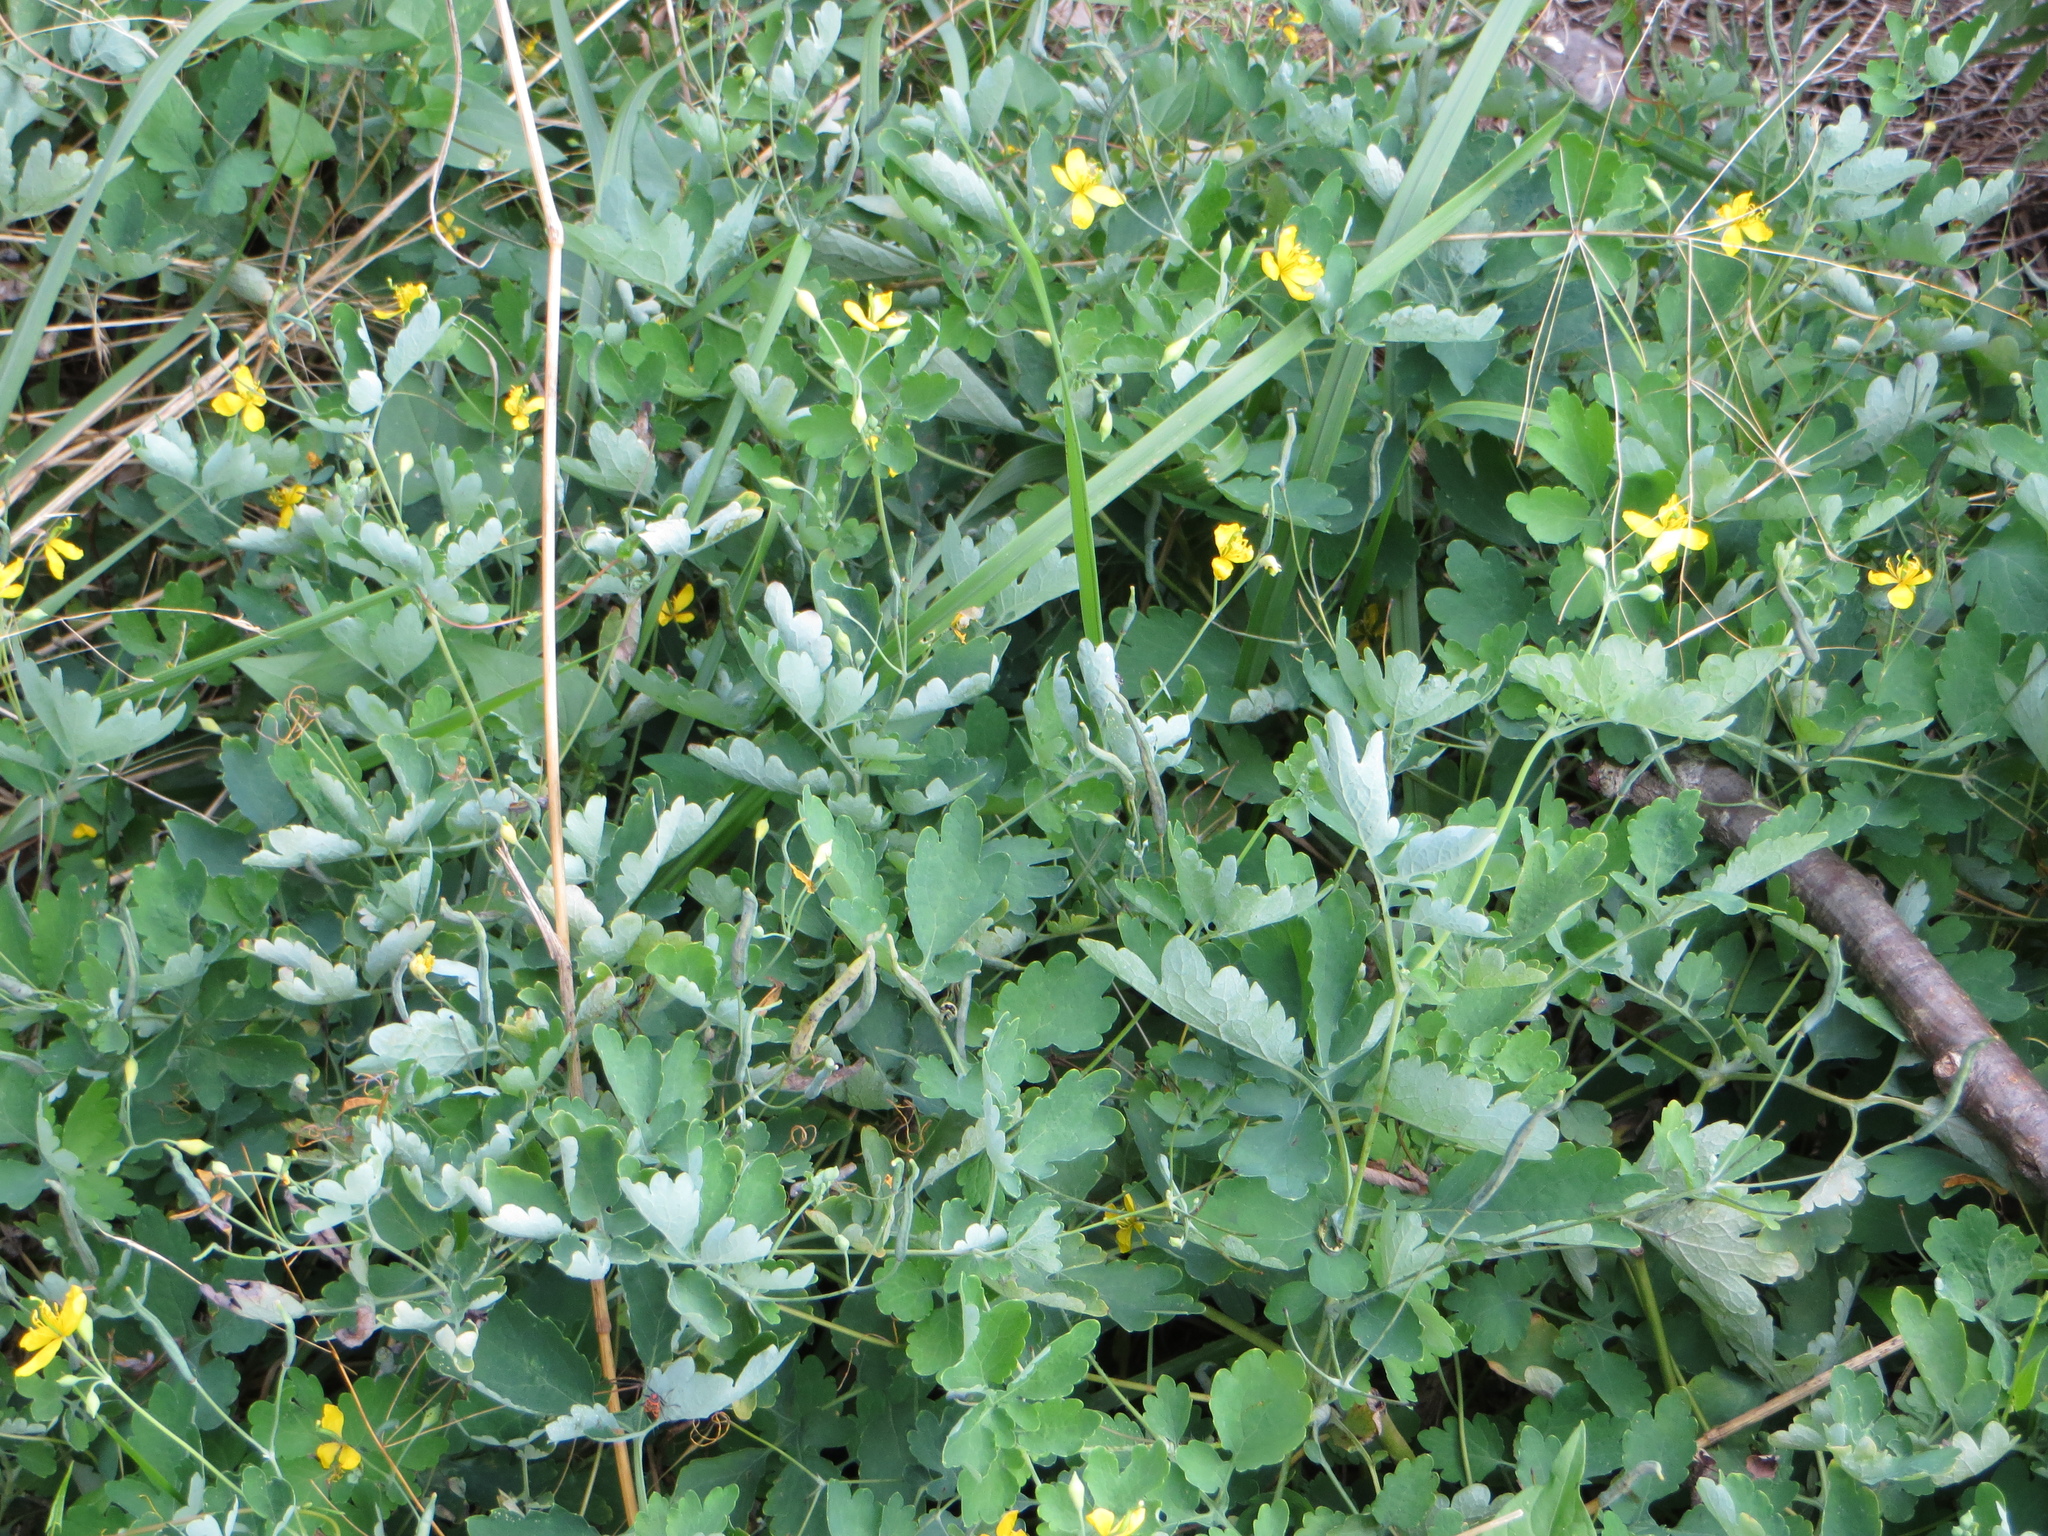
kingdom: Plantae
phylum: Tracheophyta
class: Magnoliopsida
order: Ranunculales
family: Papaveraceae
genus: Chelidonium
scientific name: Chelidonium majus
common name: Greater celandine
